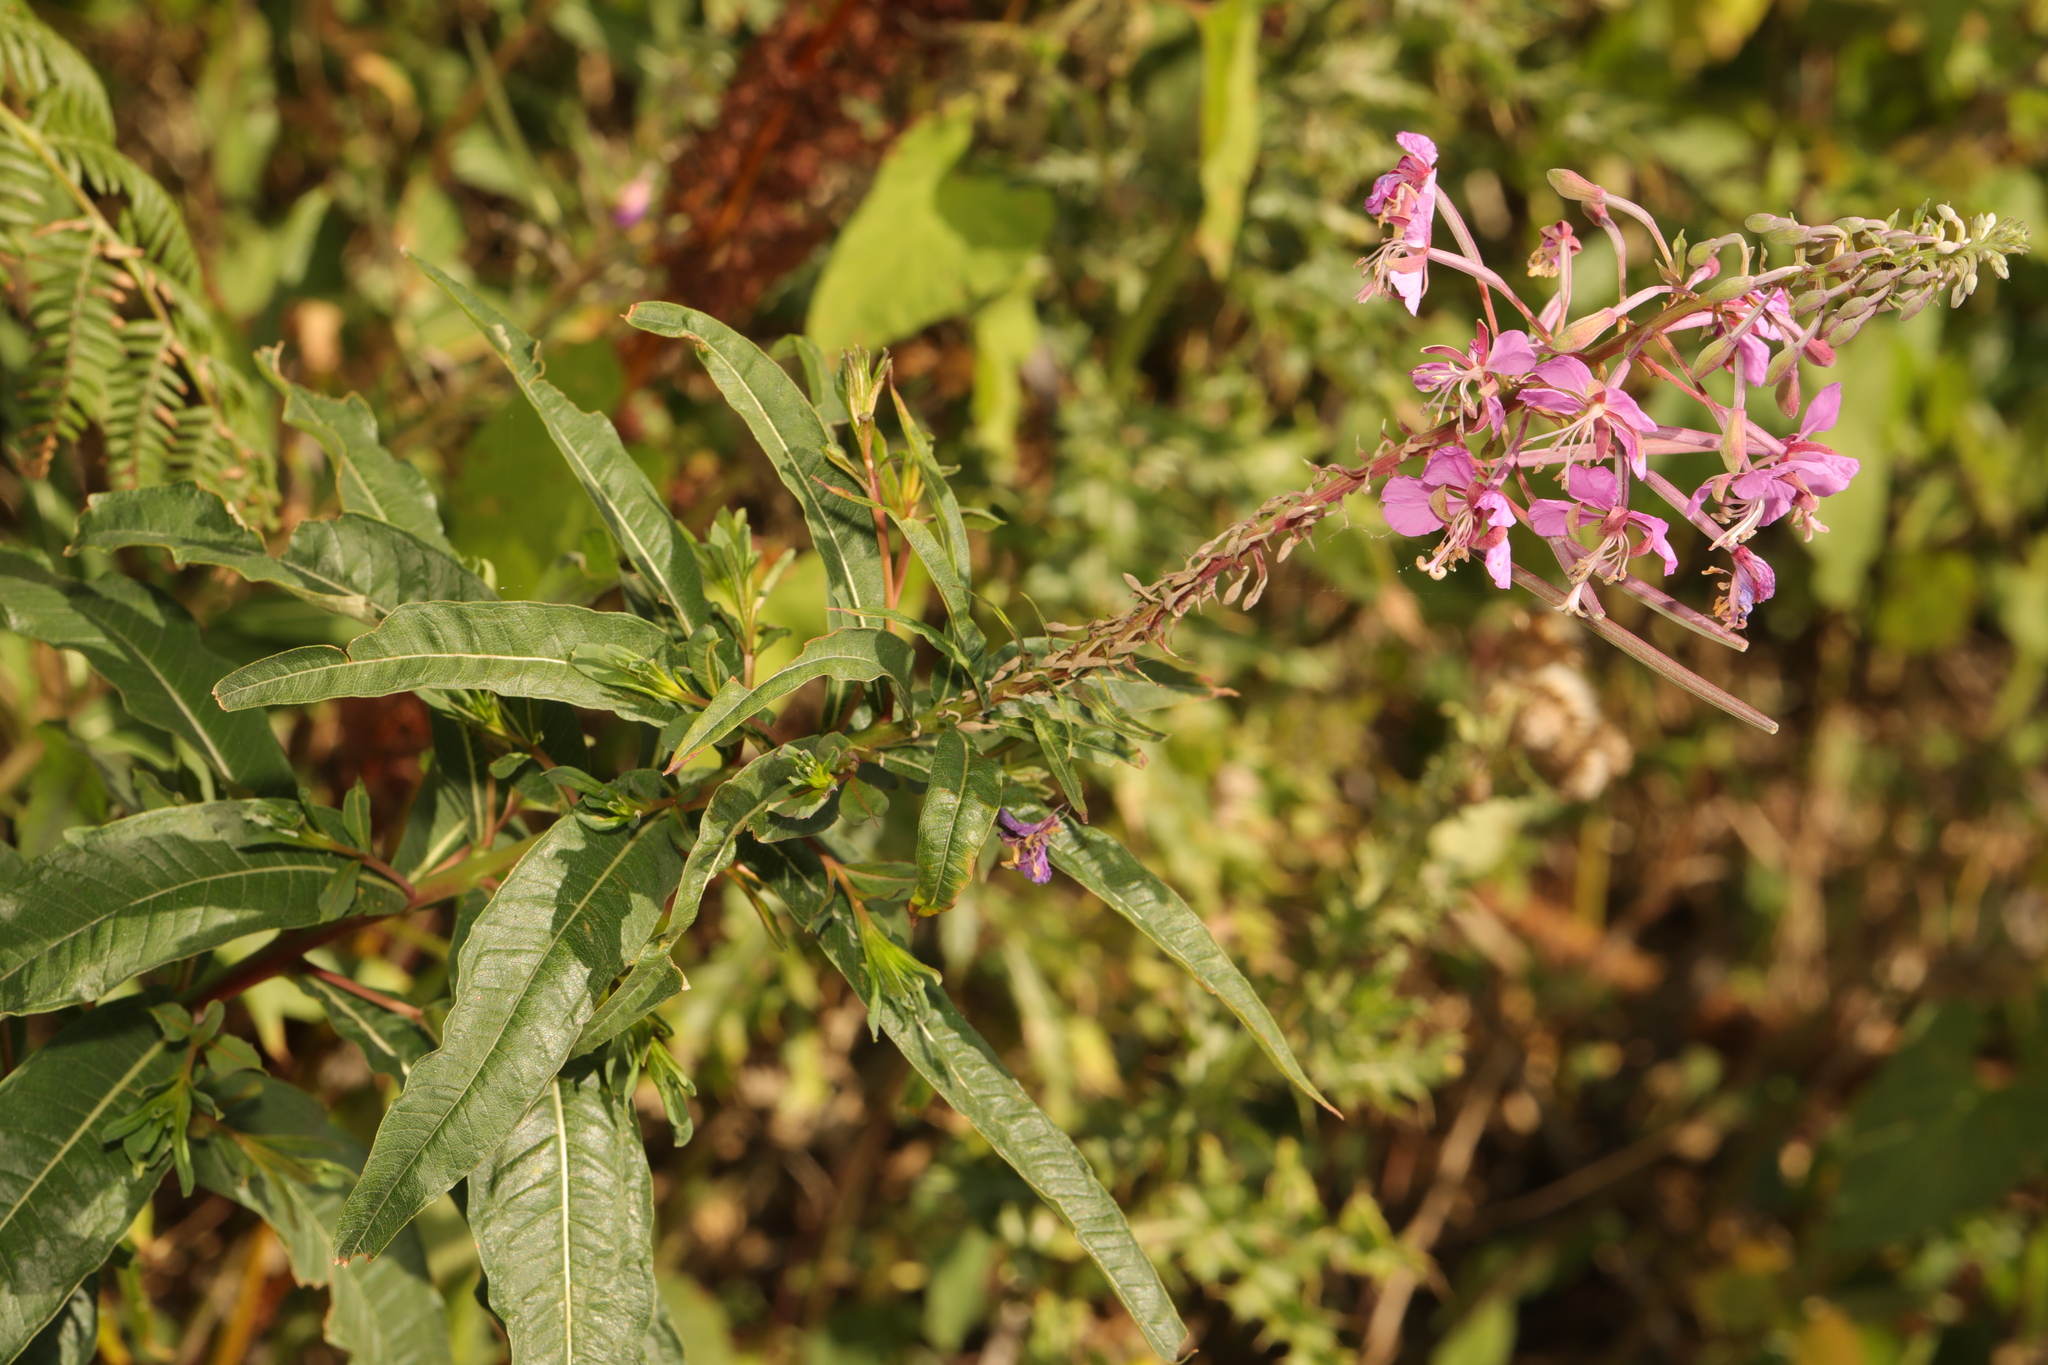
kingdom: Plantae
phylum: Tracheophyta
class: Magnoliopsida
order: Myrtales
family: Onagraceae
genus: Chamaenerion
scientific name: Chamaenerion angustifolium
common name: Fireweed
